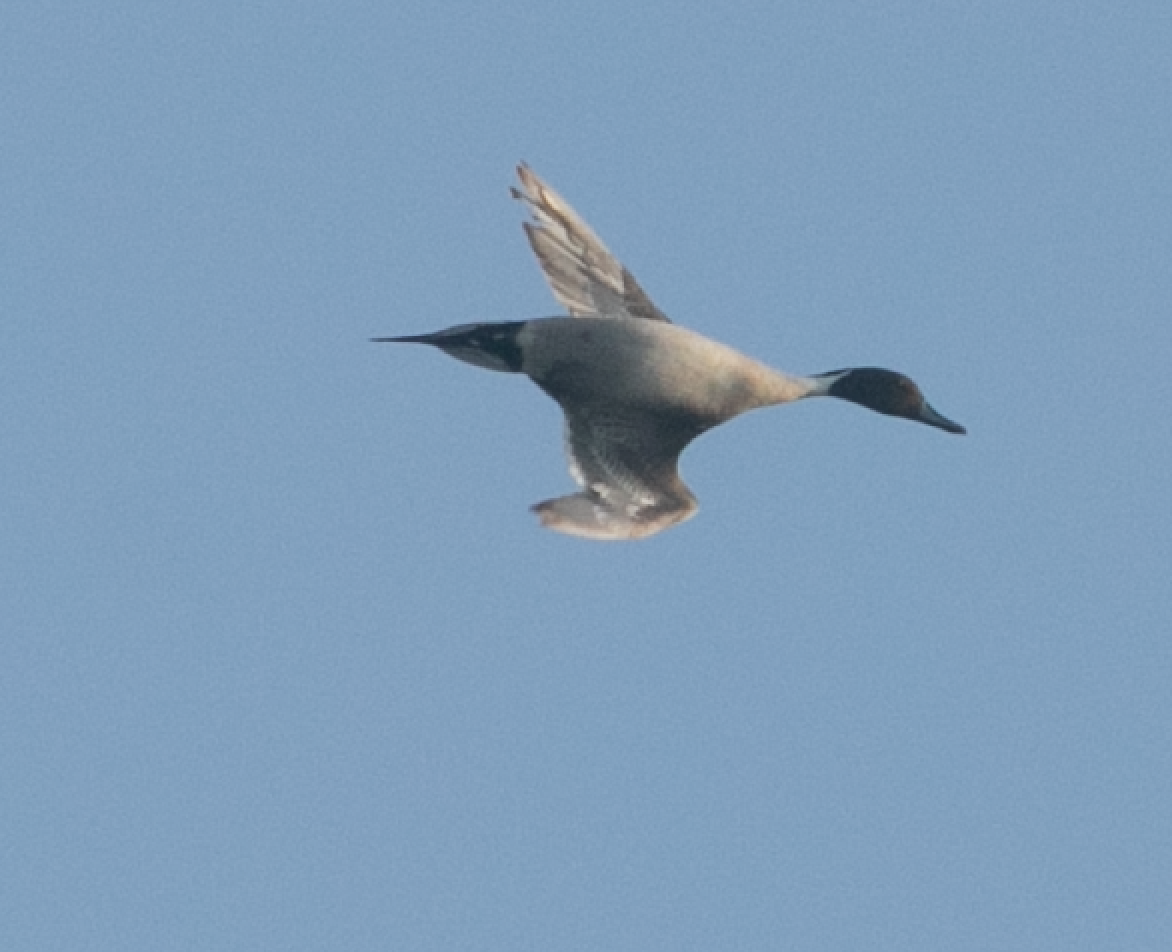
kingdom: Animalia
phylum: Chordata
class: Aves
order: Anseriformes
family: Anatidae
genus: Anas
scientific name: Anas acuta
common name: Northern pintail
